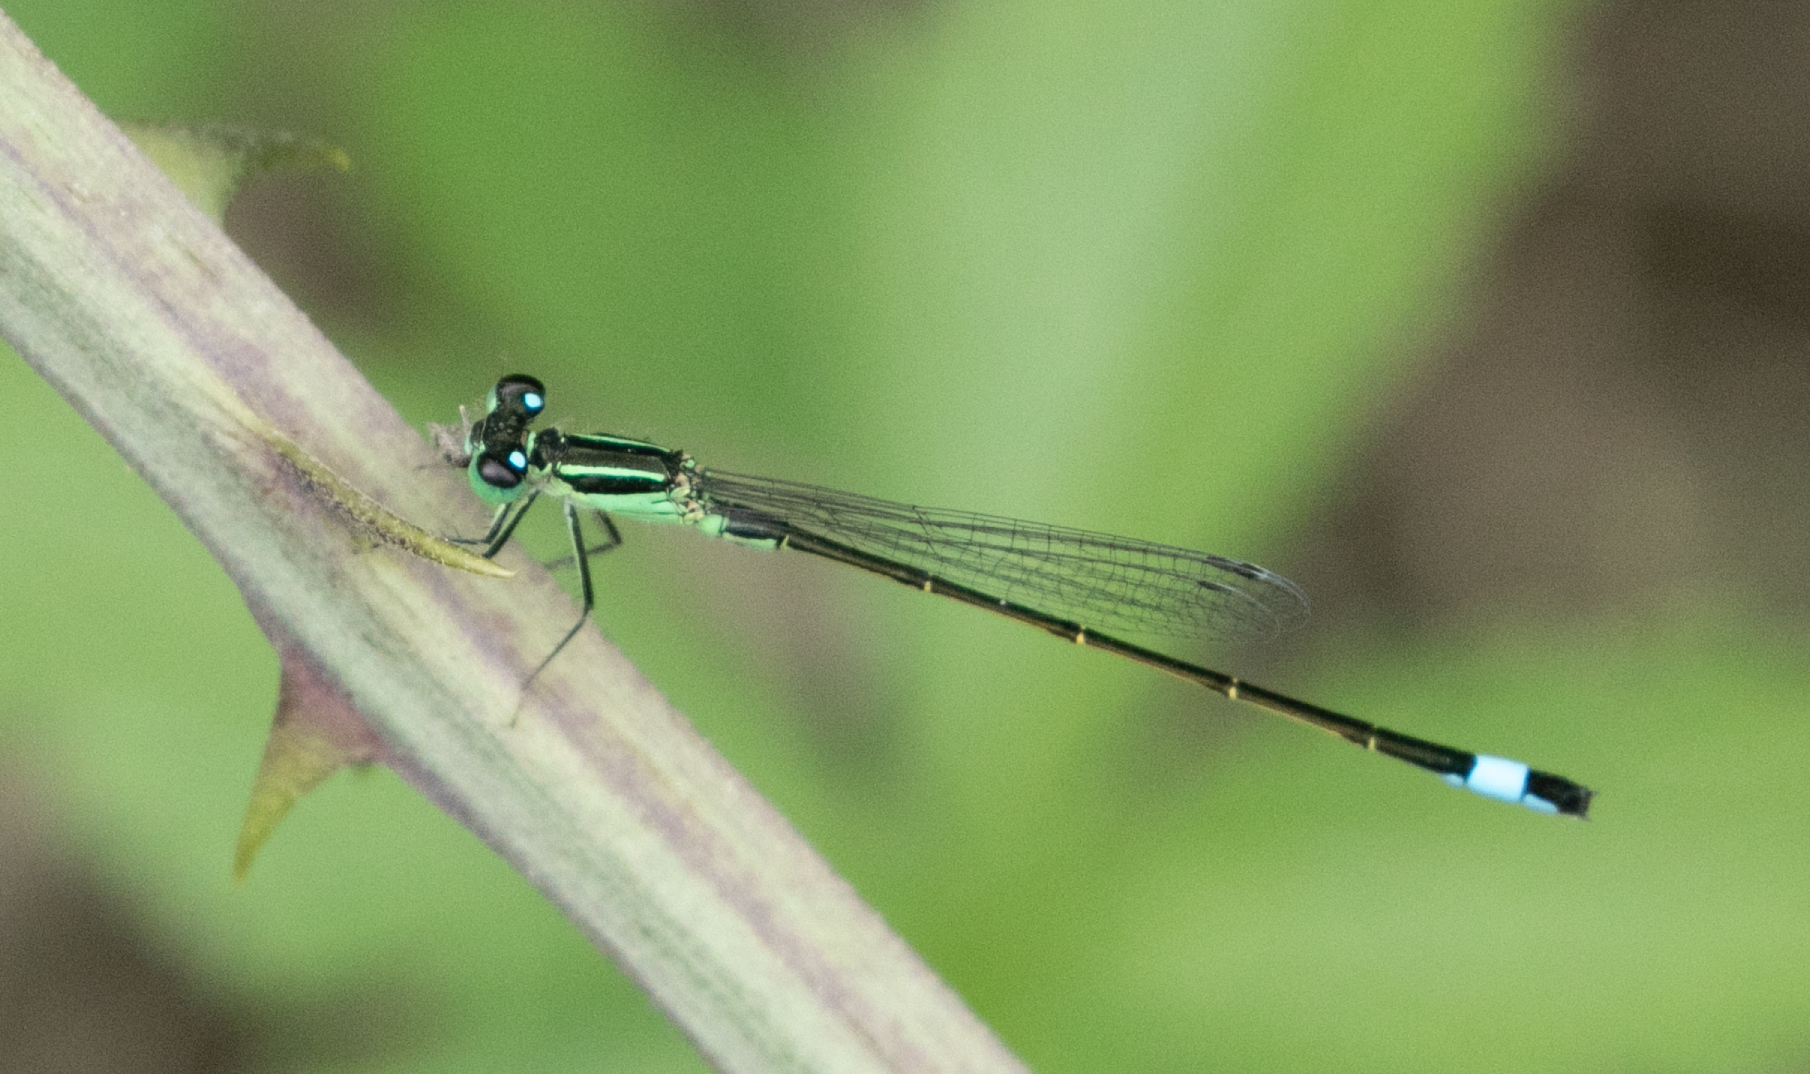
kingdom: Animalia
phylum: Arthropoda
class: Insecta
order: Odonata
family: Coenagrionidae
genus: Ischnura
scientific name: Ischnura elegans
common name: Blue-tailed damselfly
